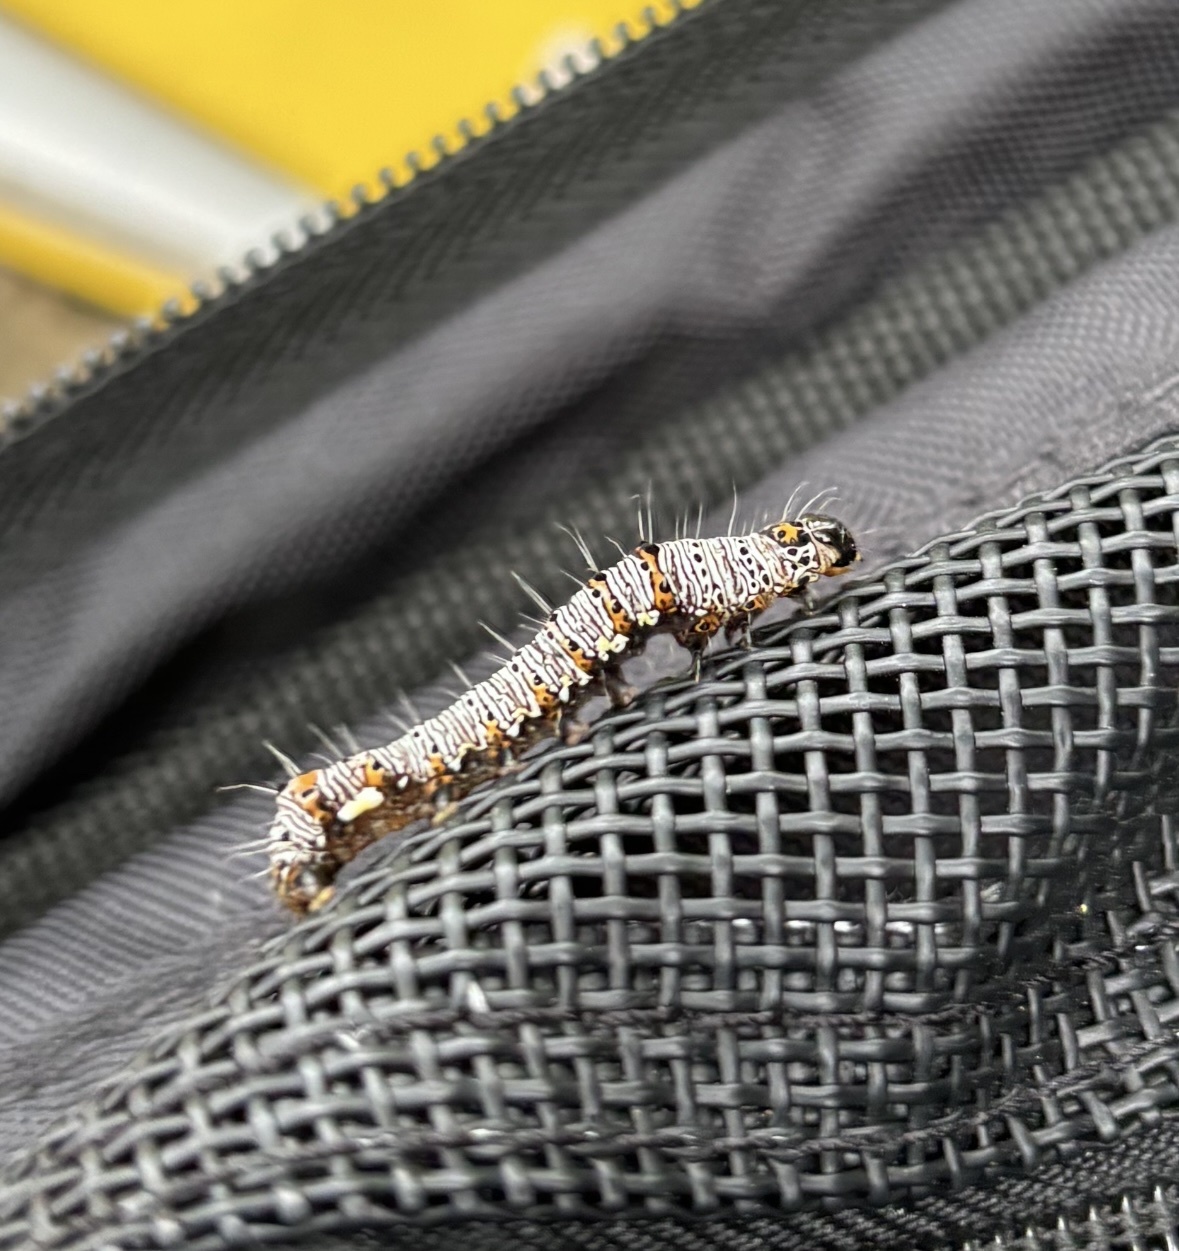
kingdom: Animalia
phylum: Arthropoda
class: Insecta
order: Lepidoptera
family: Noctuidae
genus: Alypia
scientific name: Alypia octomaculata
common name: Eight-spotted forester
